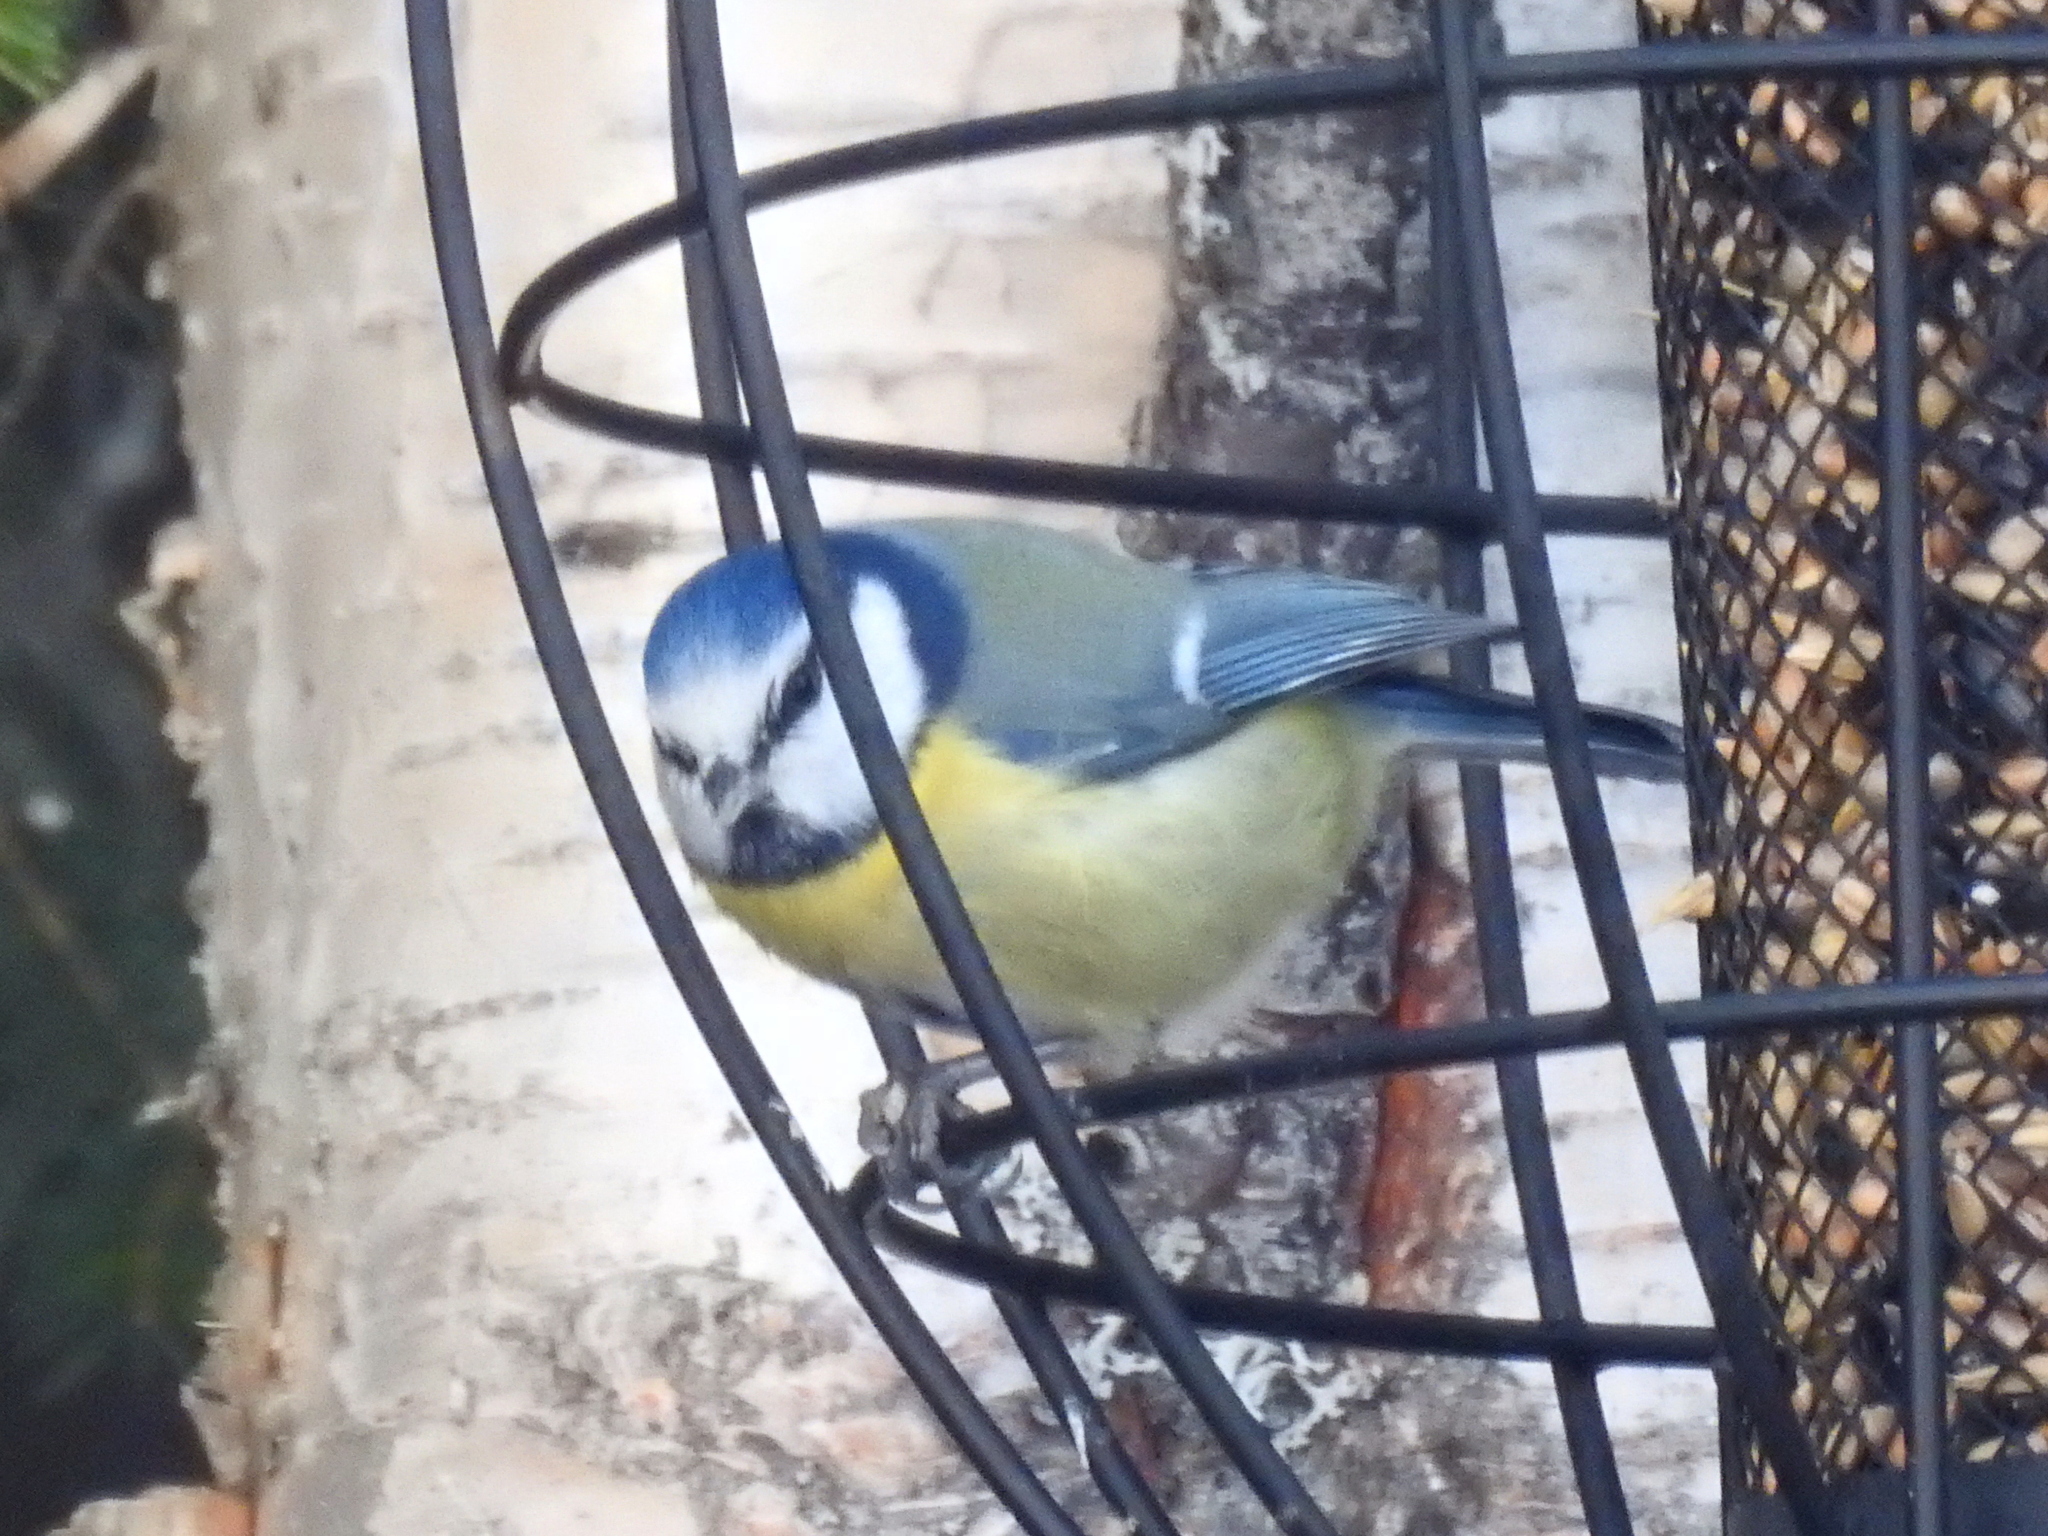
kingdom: Animalia
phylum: Chordata
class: Aves
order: Passeriformes
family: Paridae
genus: Cyanistes
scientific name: Cyanistes caeruleus
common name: Eurasian blue tit
